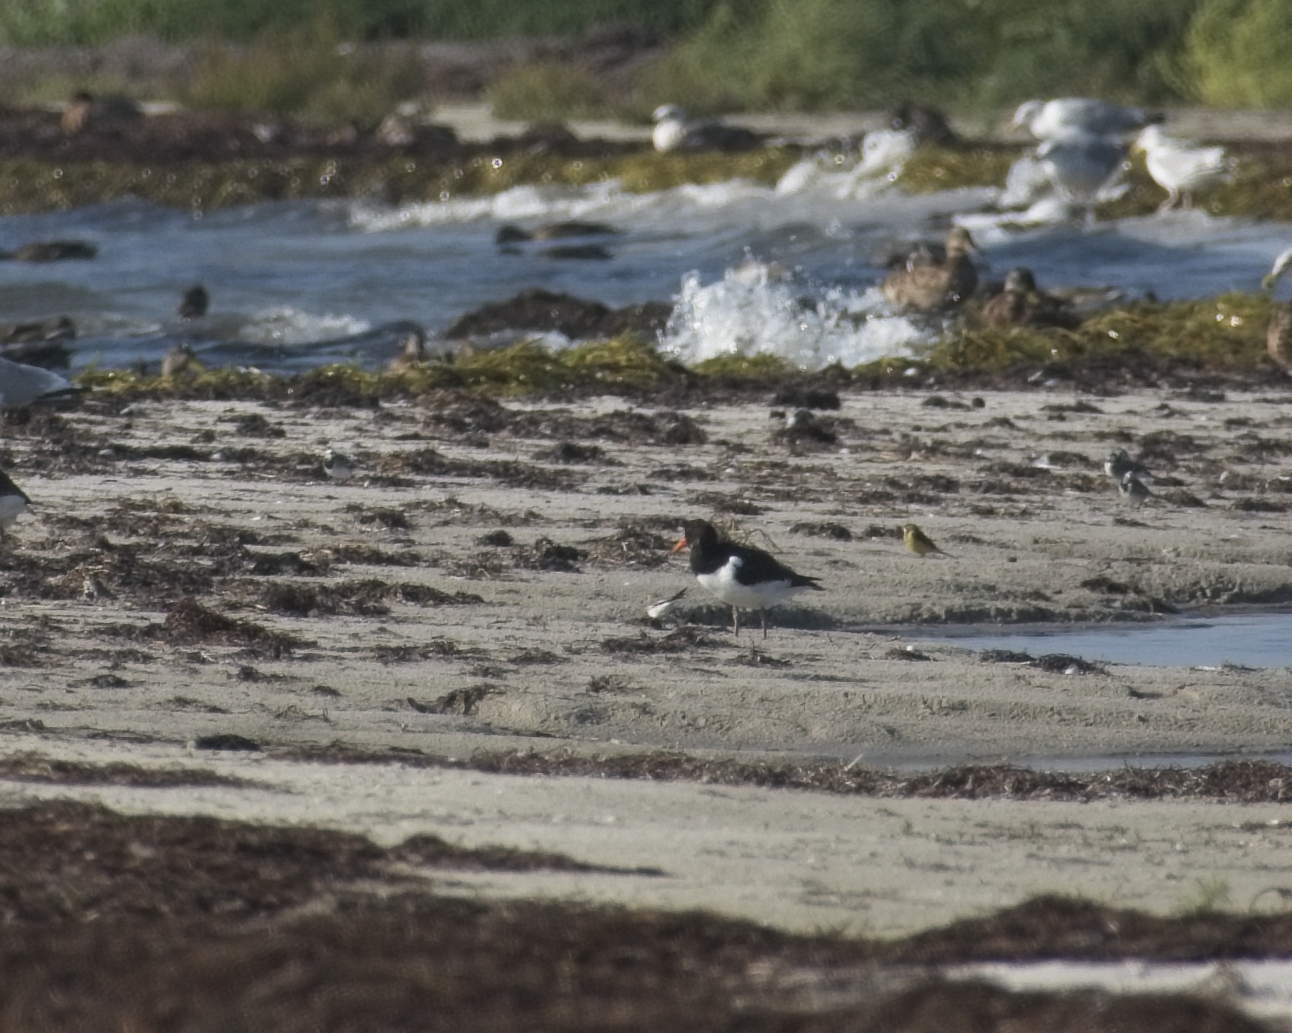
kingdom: Animalia
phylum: Chordata
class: Aves
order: Charadriiformes
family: Haematopodidae
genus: Haematopus
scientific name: Haematopus ostralegus
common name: Eurasian oystercatcher
